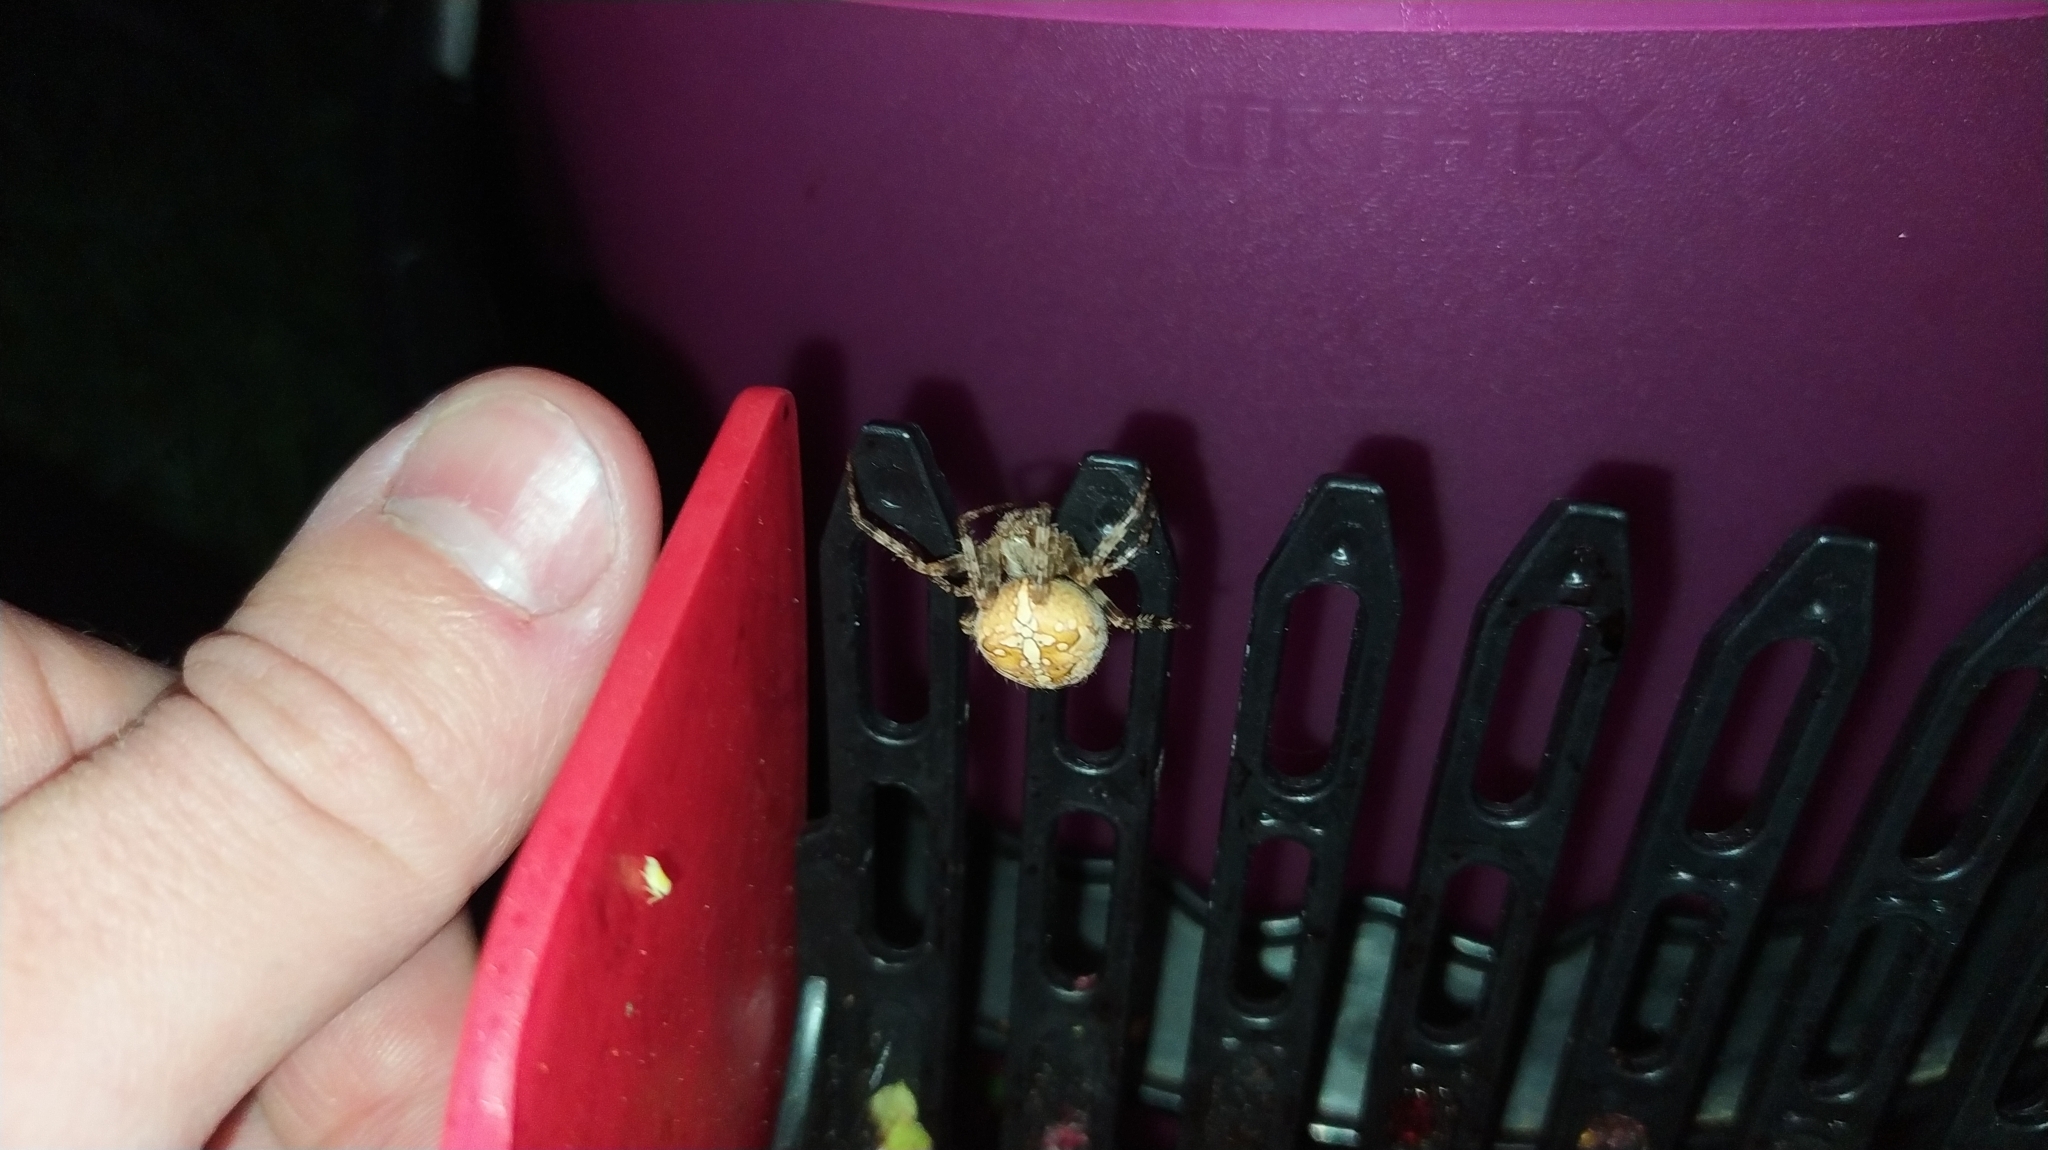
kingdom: Animalia
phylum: Arthropoda
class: Arachnida
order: Araneae
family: Araneidae
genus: Araneus
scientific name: Araneus diadematus
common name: Cross orbweaver
